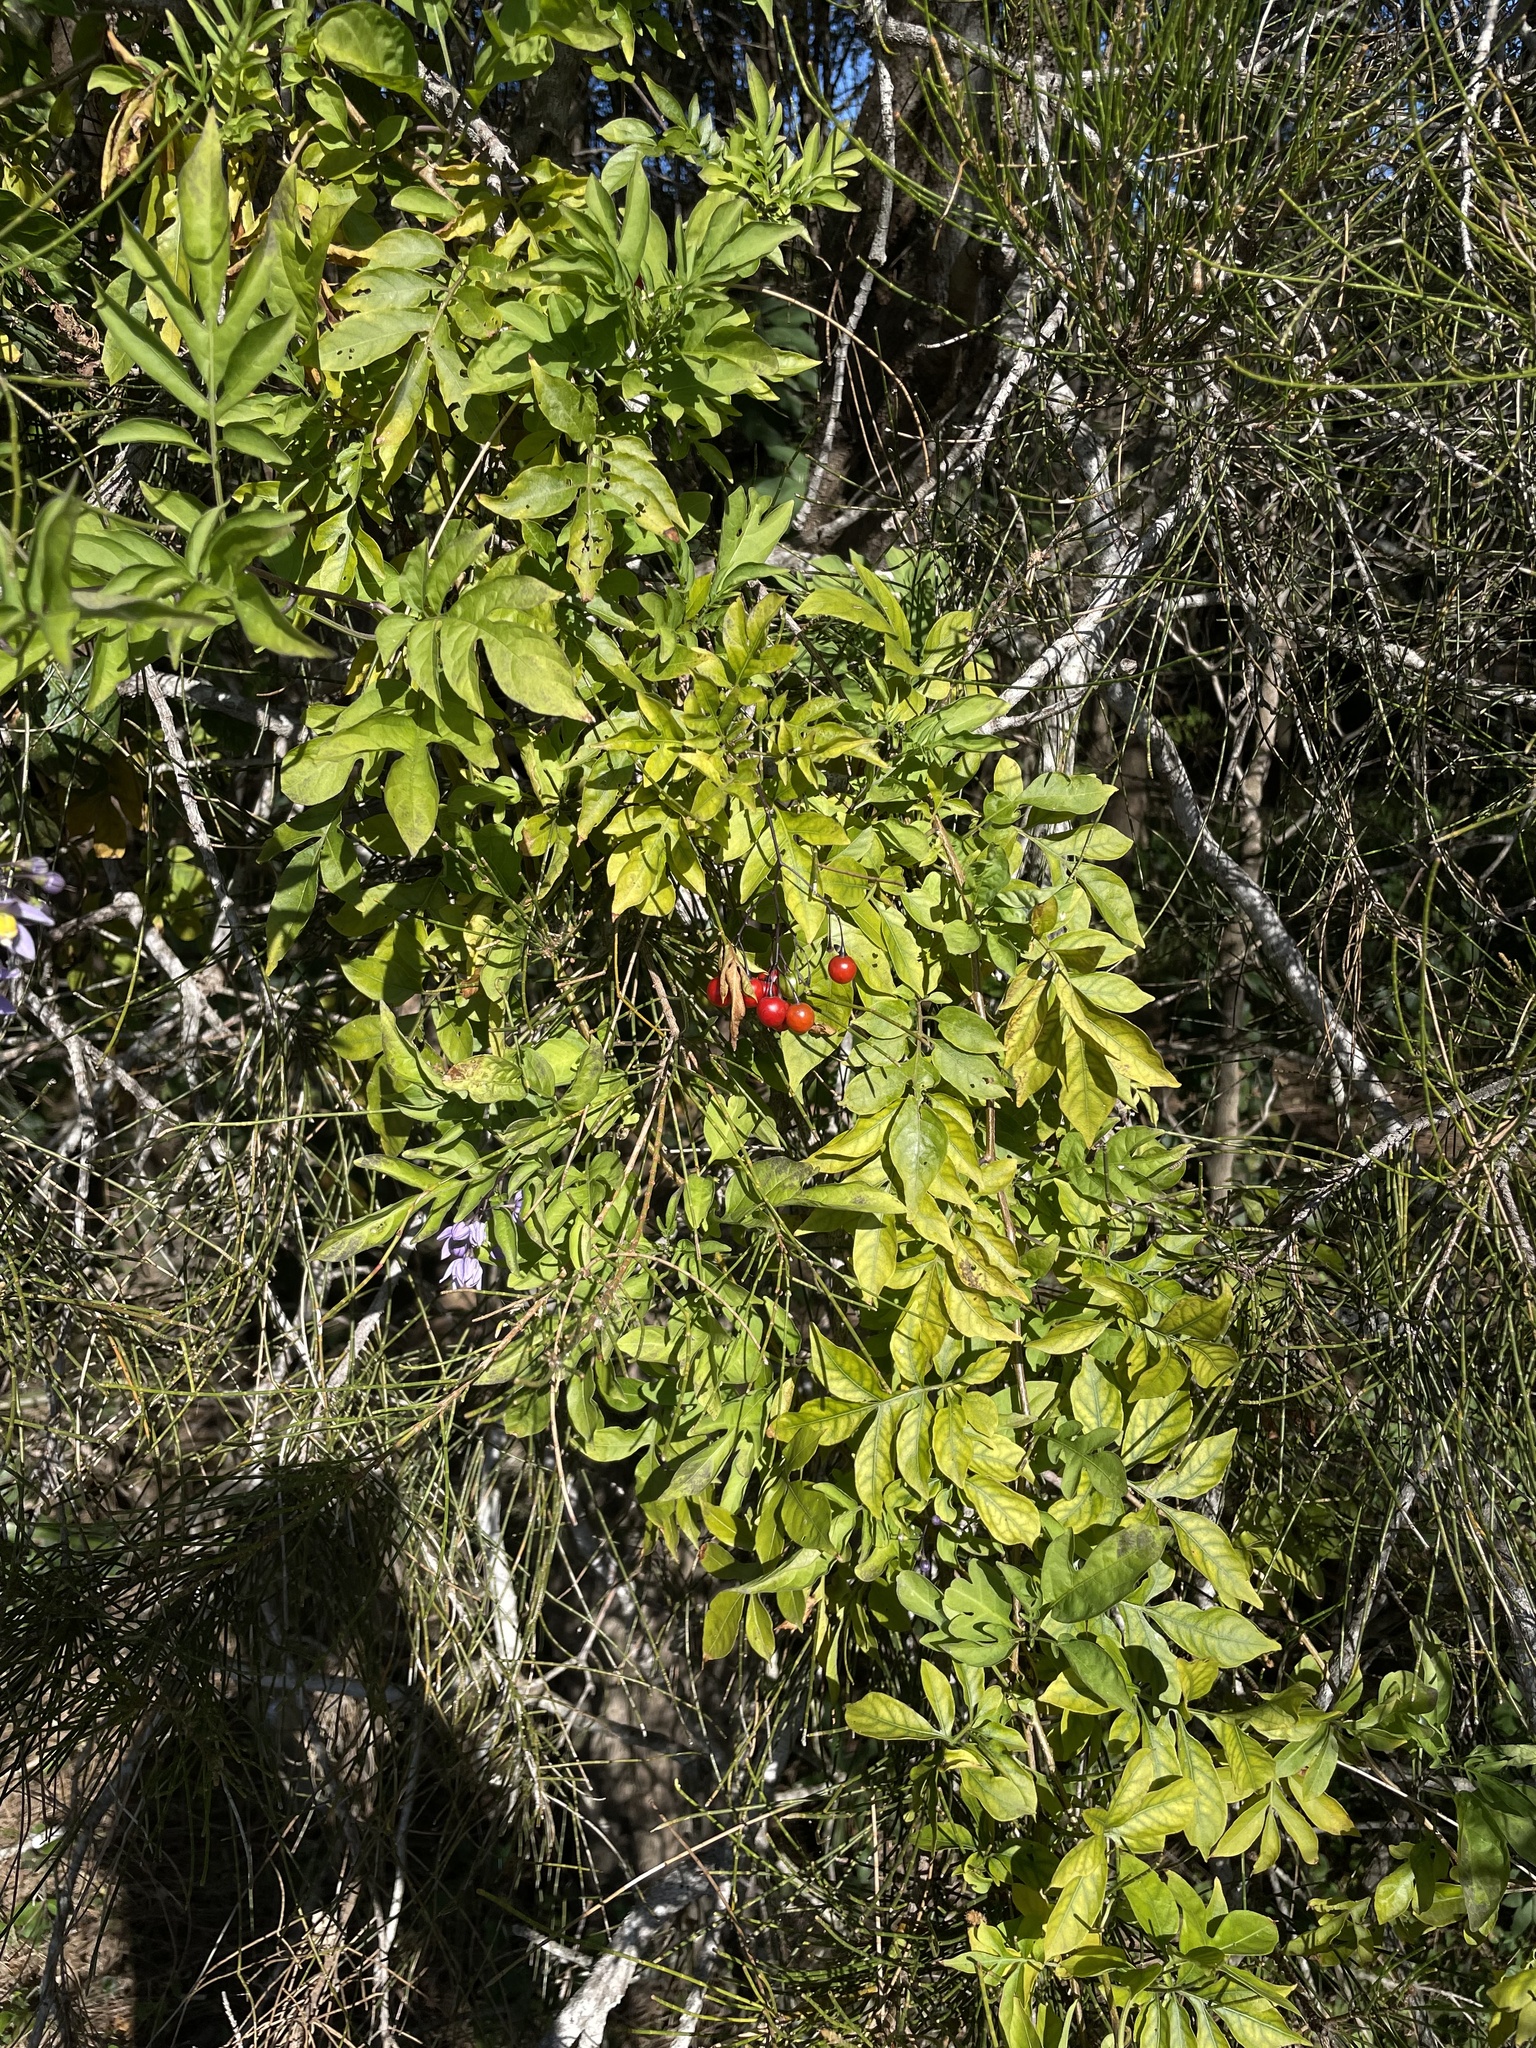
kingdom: Plantae
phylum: Tracheophyta
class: Magnoliopsida
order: Solanales
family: Solanaceae
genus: Solanum
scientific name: Solanum seaforthianum
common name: Brazilian nightshade
